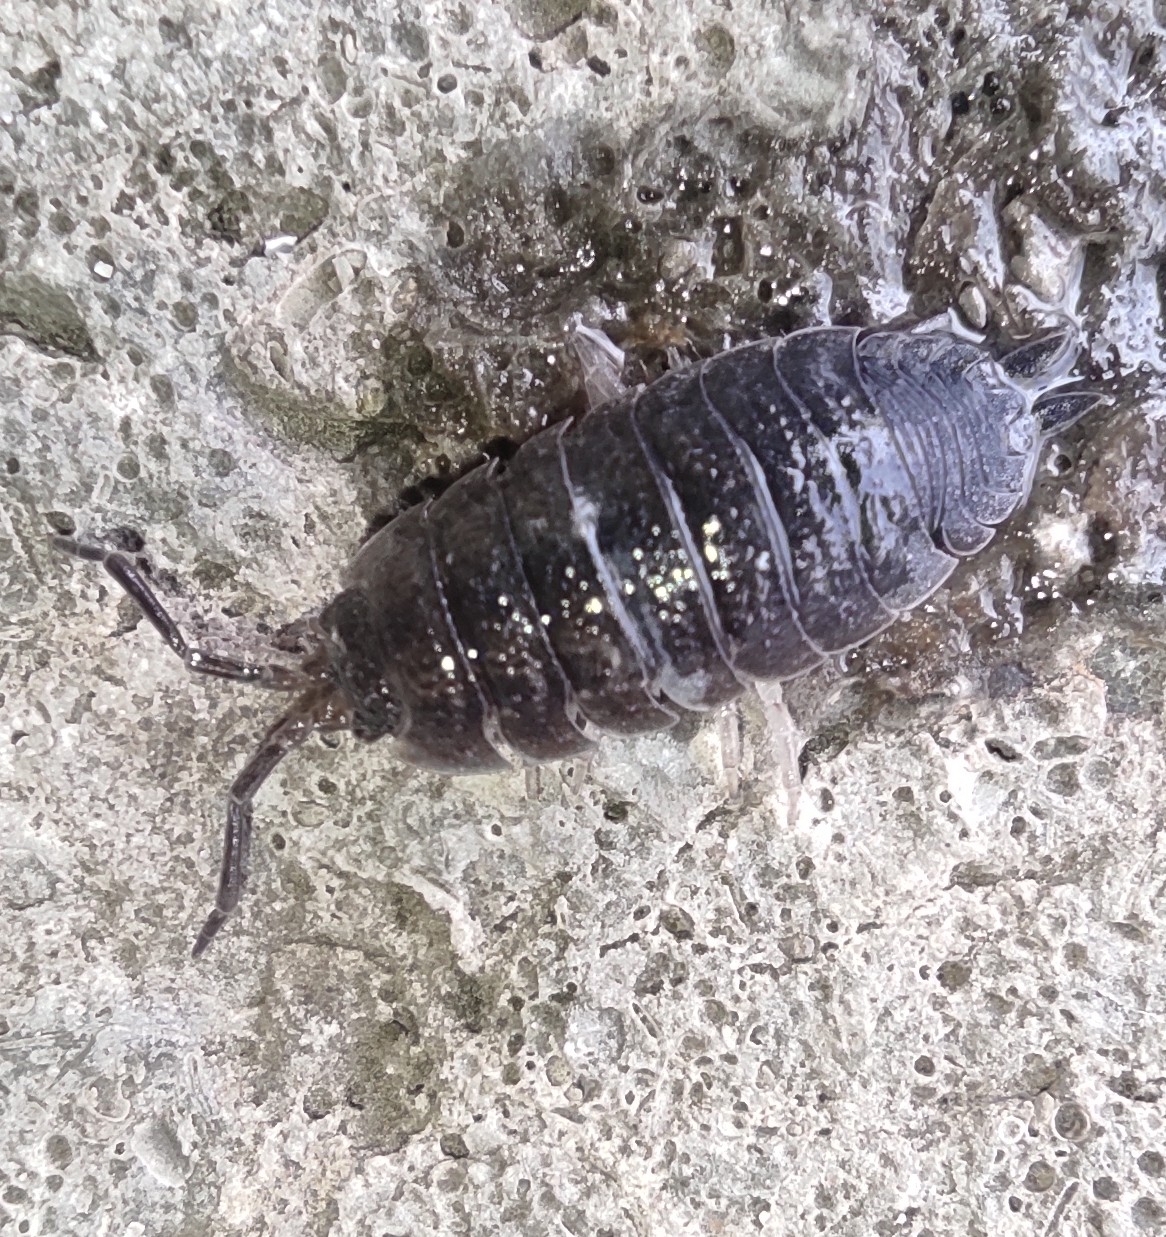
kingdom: Animalia
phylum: Arthropoda
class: Malacostraca
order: Isopoda
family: Porcellionidae
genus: Porcellio
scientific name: Porcellio scaber
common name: Common rough woodlouse
